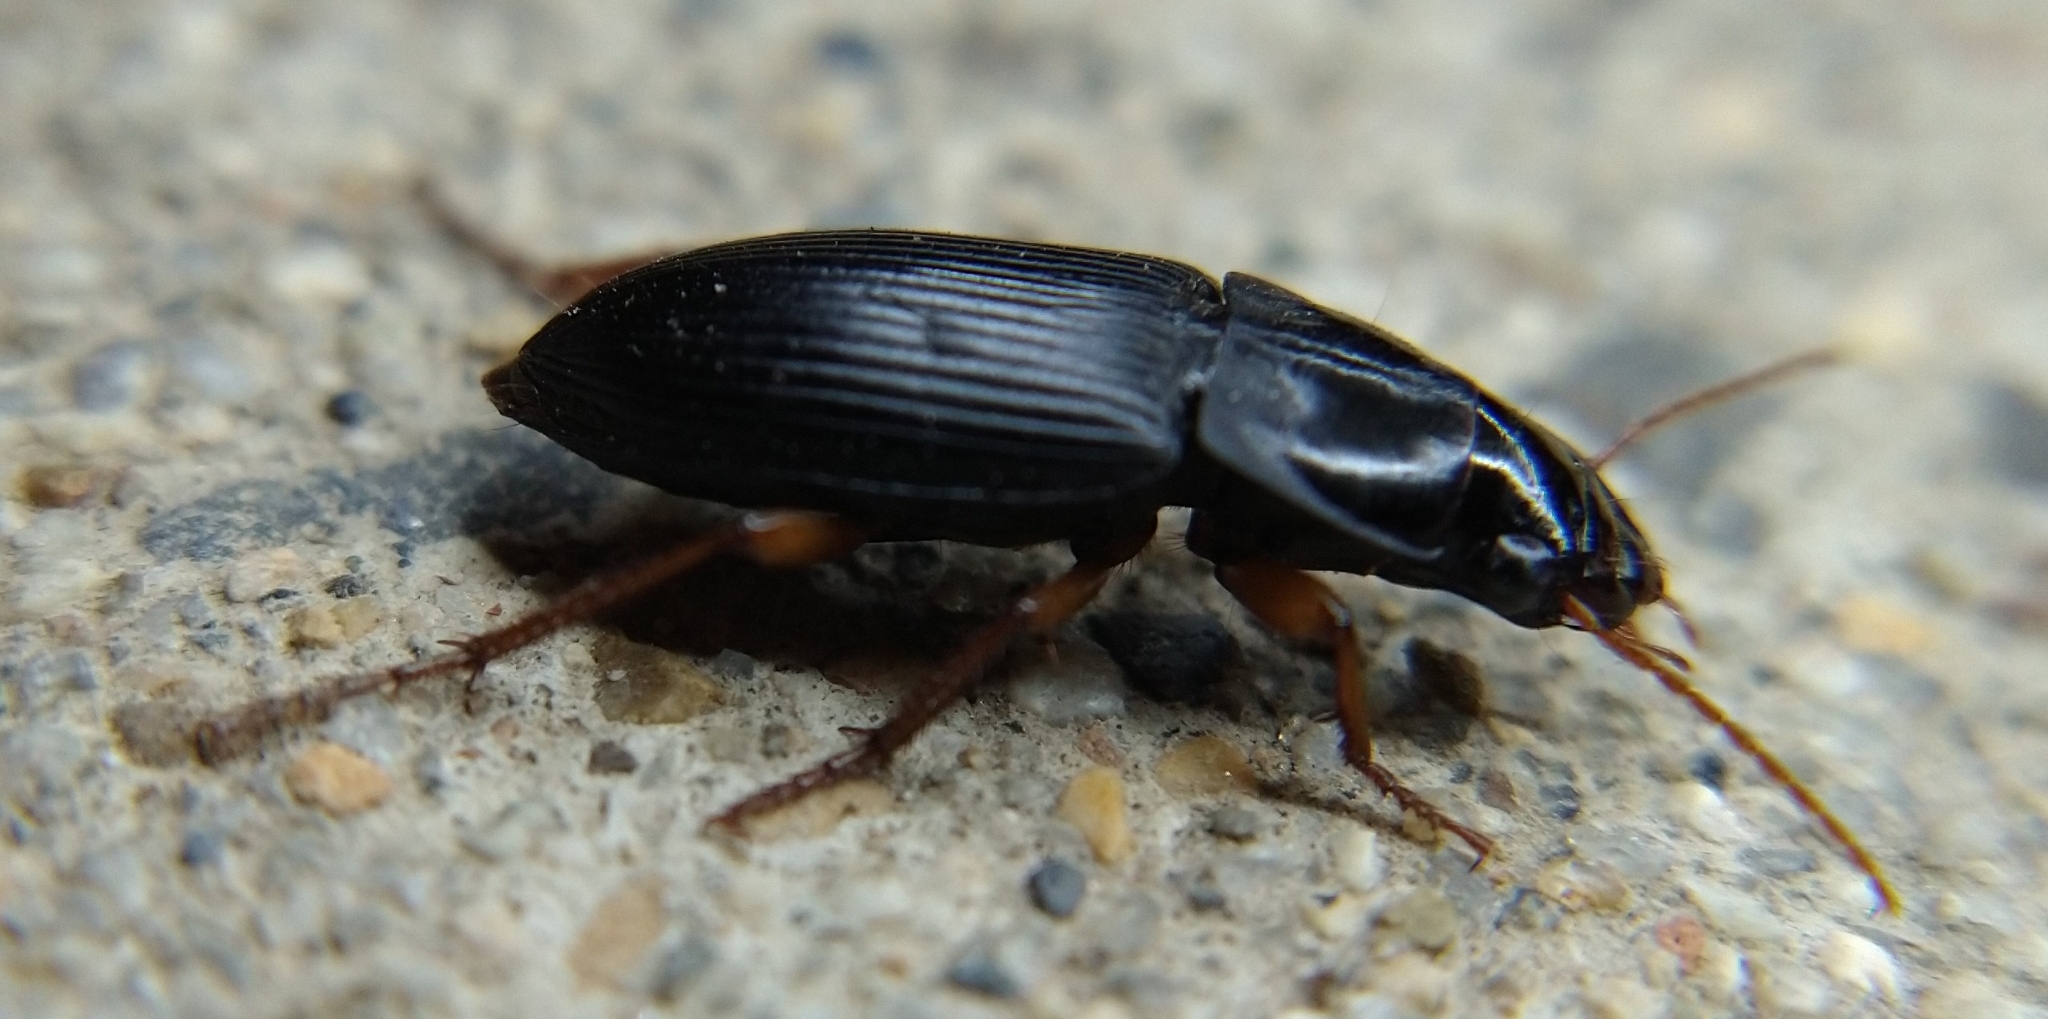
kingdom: Animalia
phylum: Arthropoda
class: Insecta
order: Coleoptera
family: Carabidae
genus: Harpalus
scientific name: Harpalus pensylvanicus
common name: Pennsylvania dingy ground beetle
